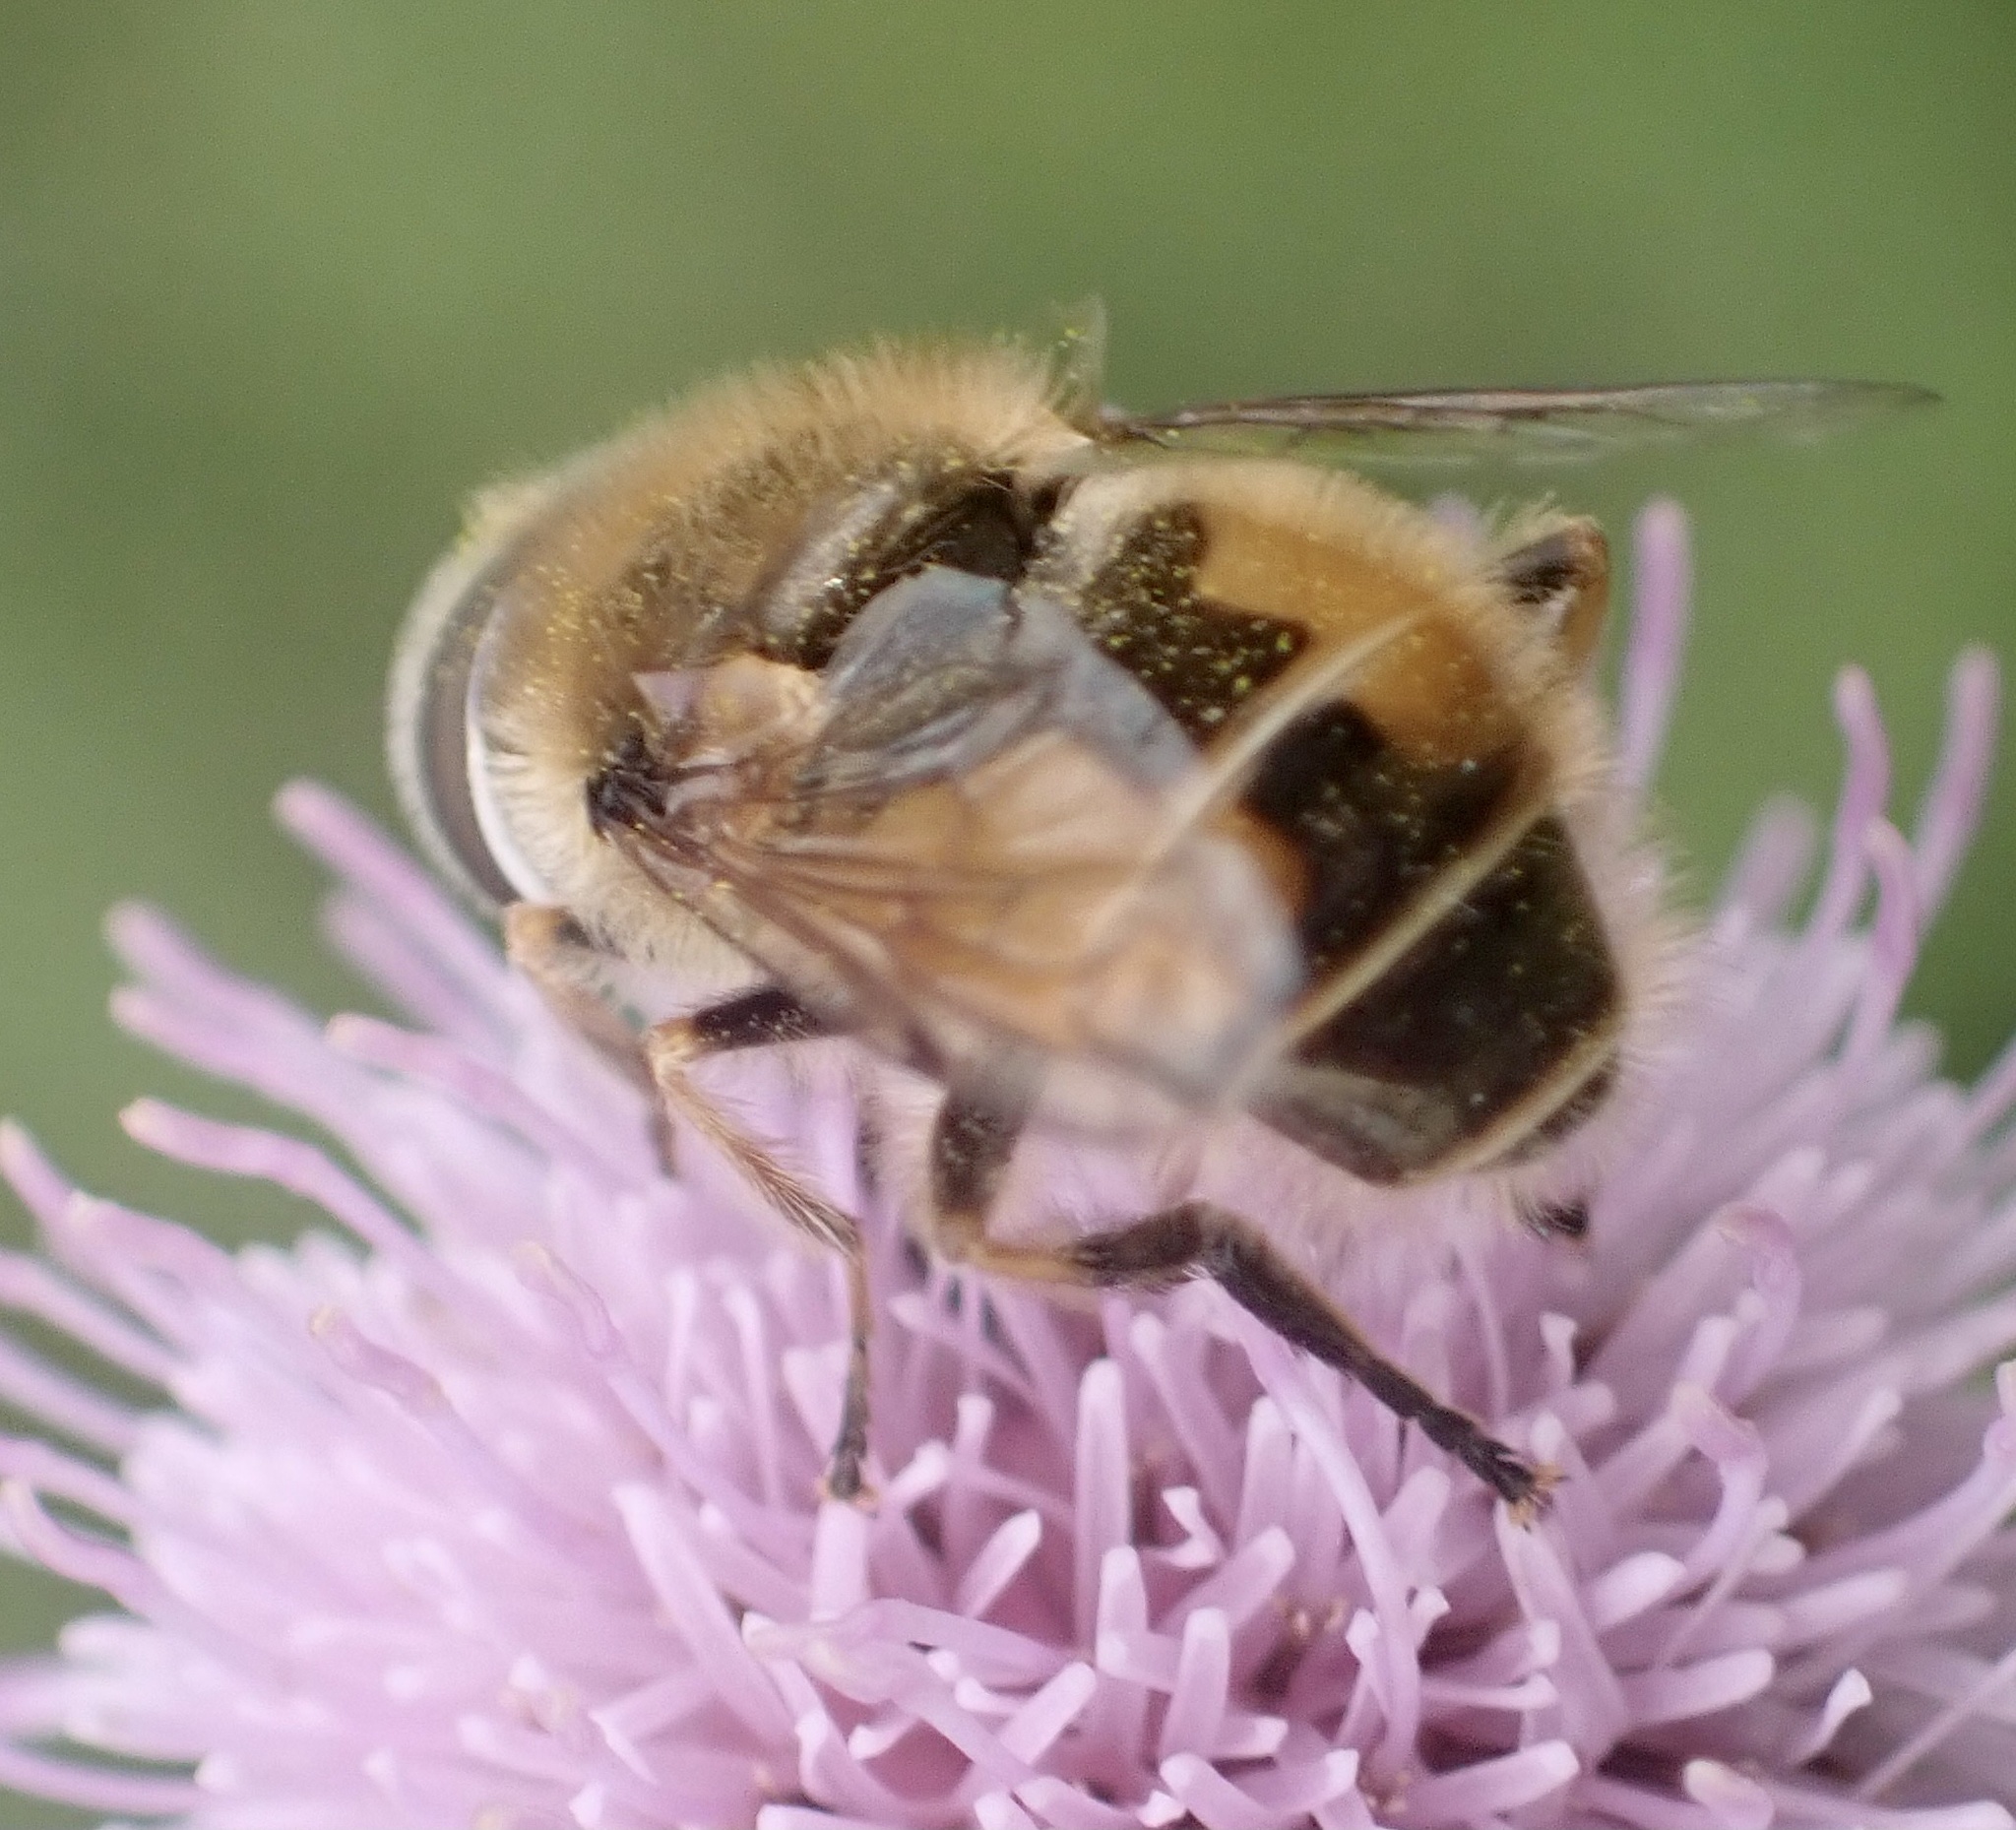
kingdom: Animalia
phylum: Arthropoda
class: Insecta
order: Diptera
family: Syrphidae
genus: Eristalis
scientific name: Eristalis abusivus
